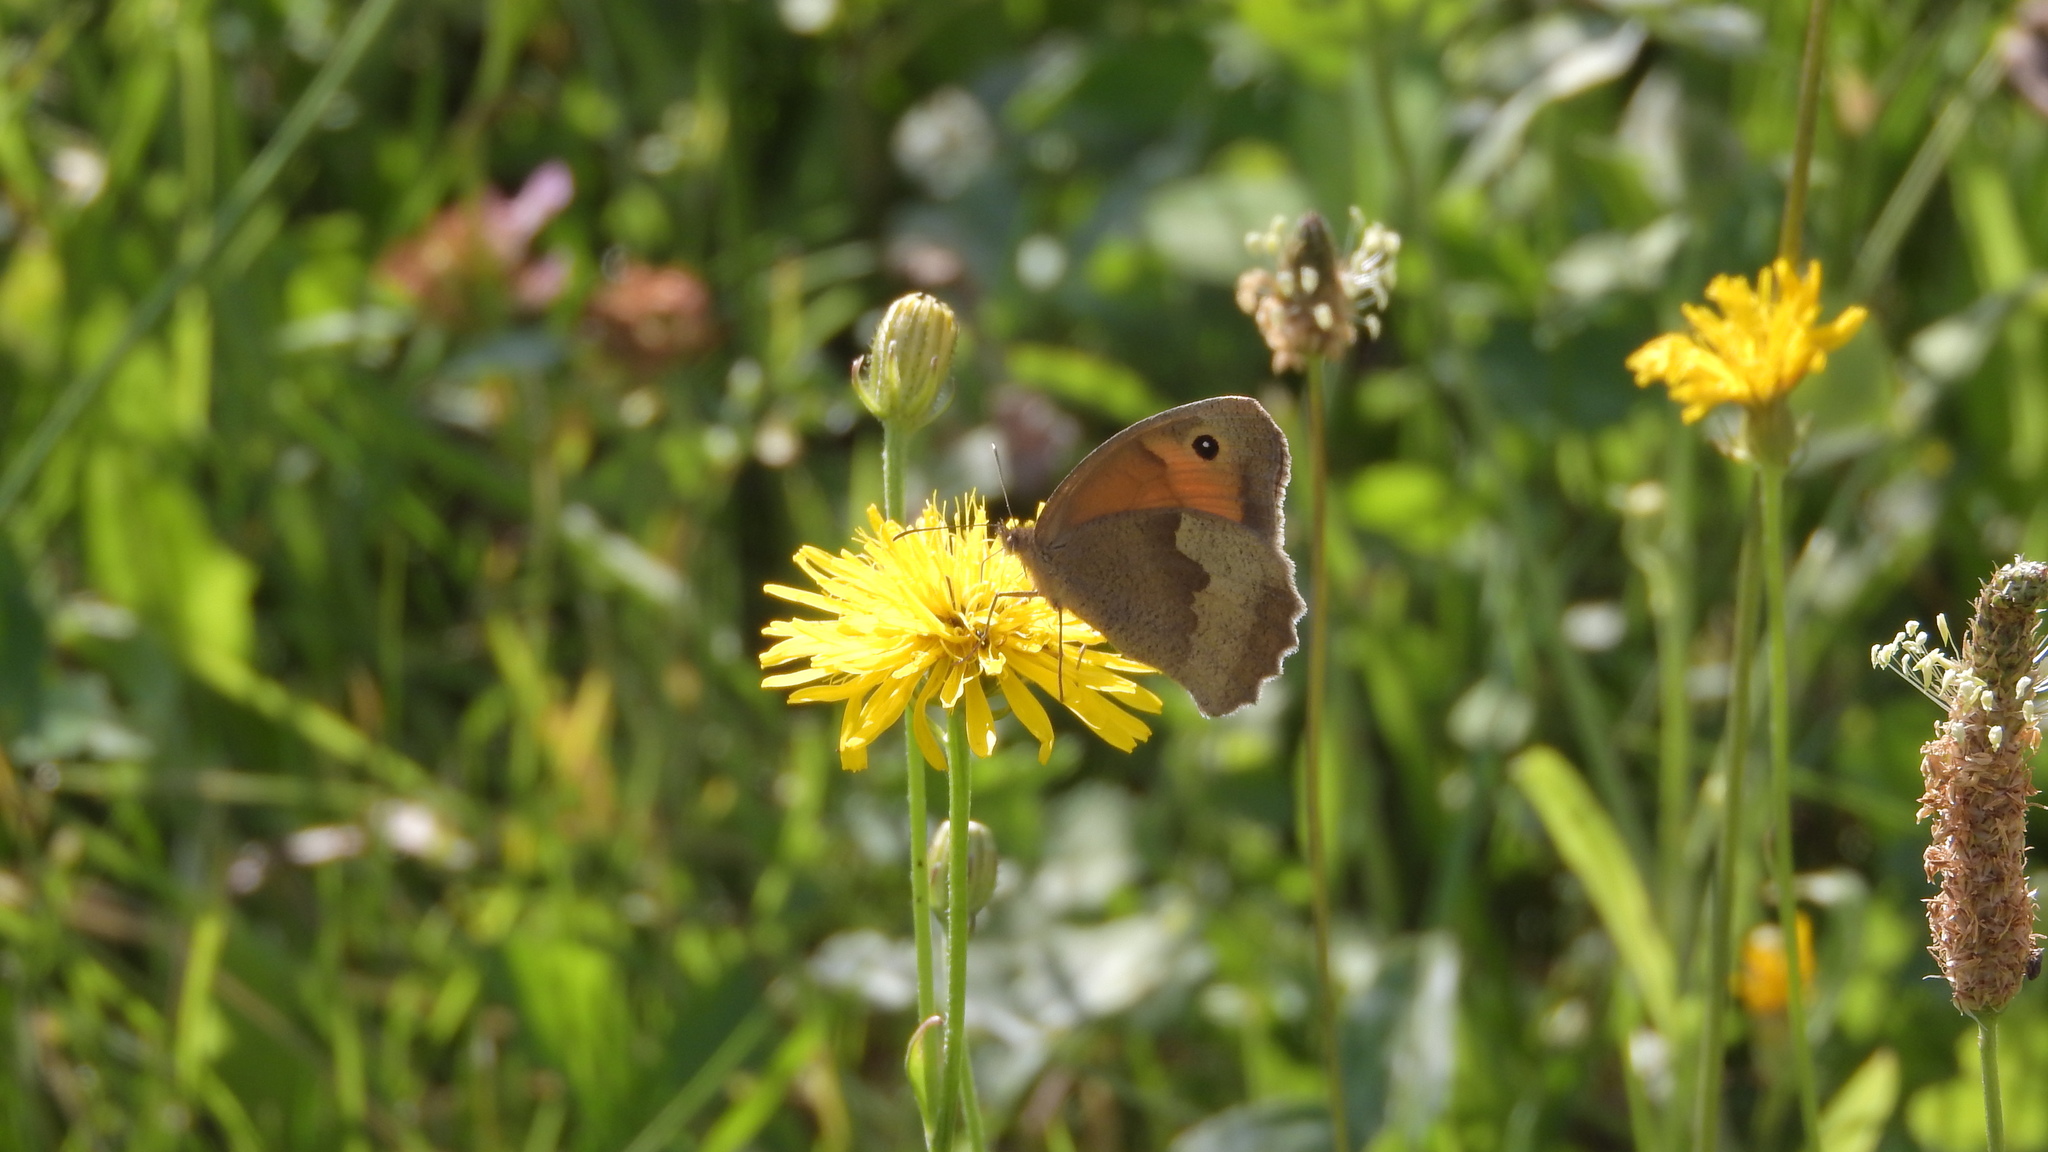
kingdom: Animalia
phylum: Arthropoda
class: Insecta
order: Lepidoptera
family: Nymphalidae
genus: Maniola
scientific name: Maniola jurtina
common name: Meadow brown
